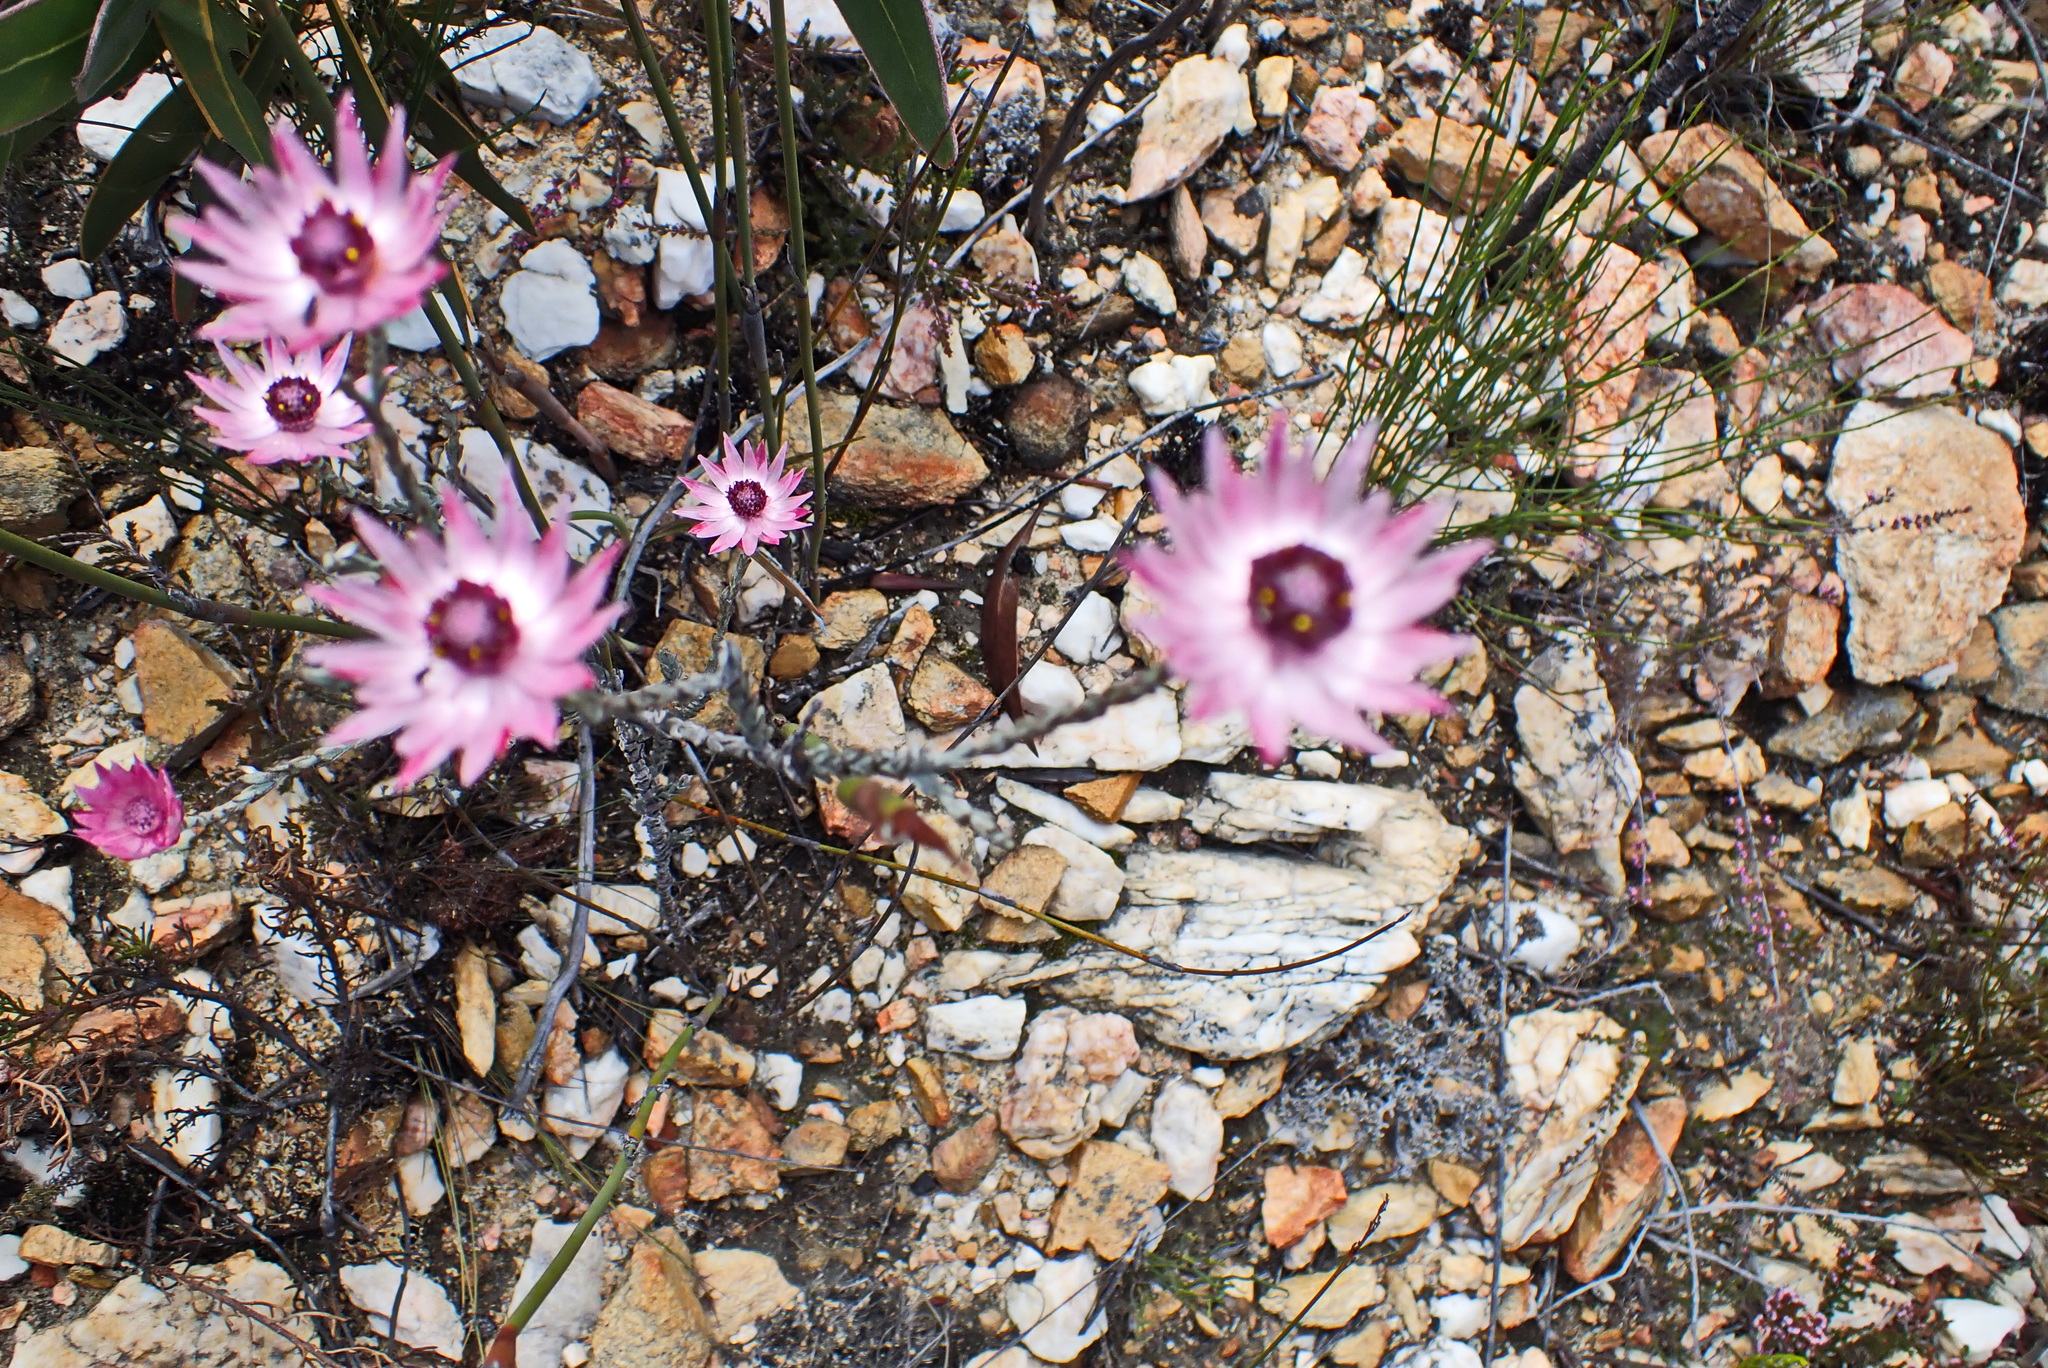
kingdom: Plantae
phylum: Tracheophyta
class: Magnoliopsida
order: Asterales
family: Asteraceae
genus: Syncarpha
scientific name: Syncarpha canescens
